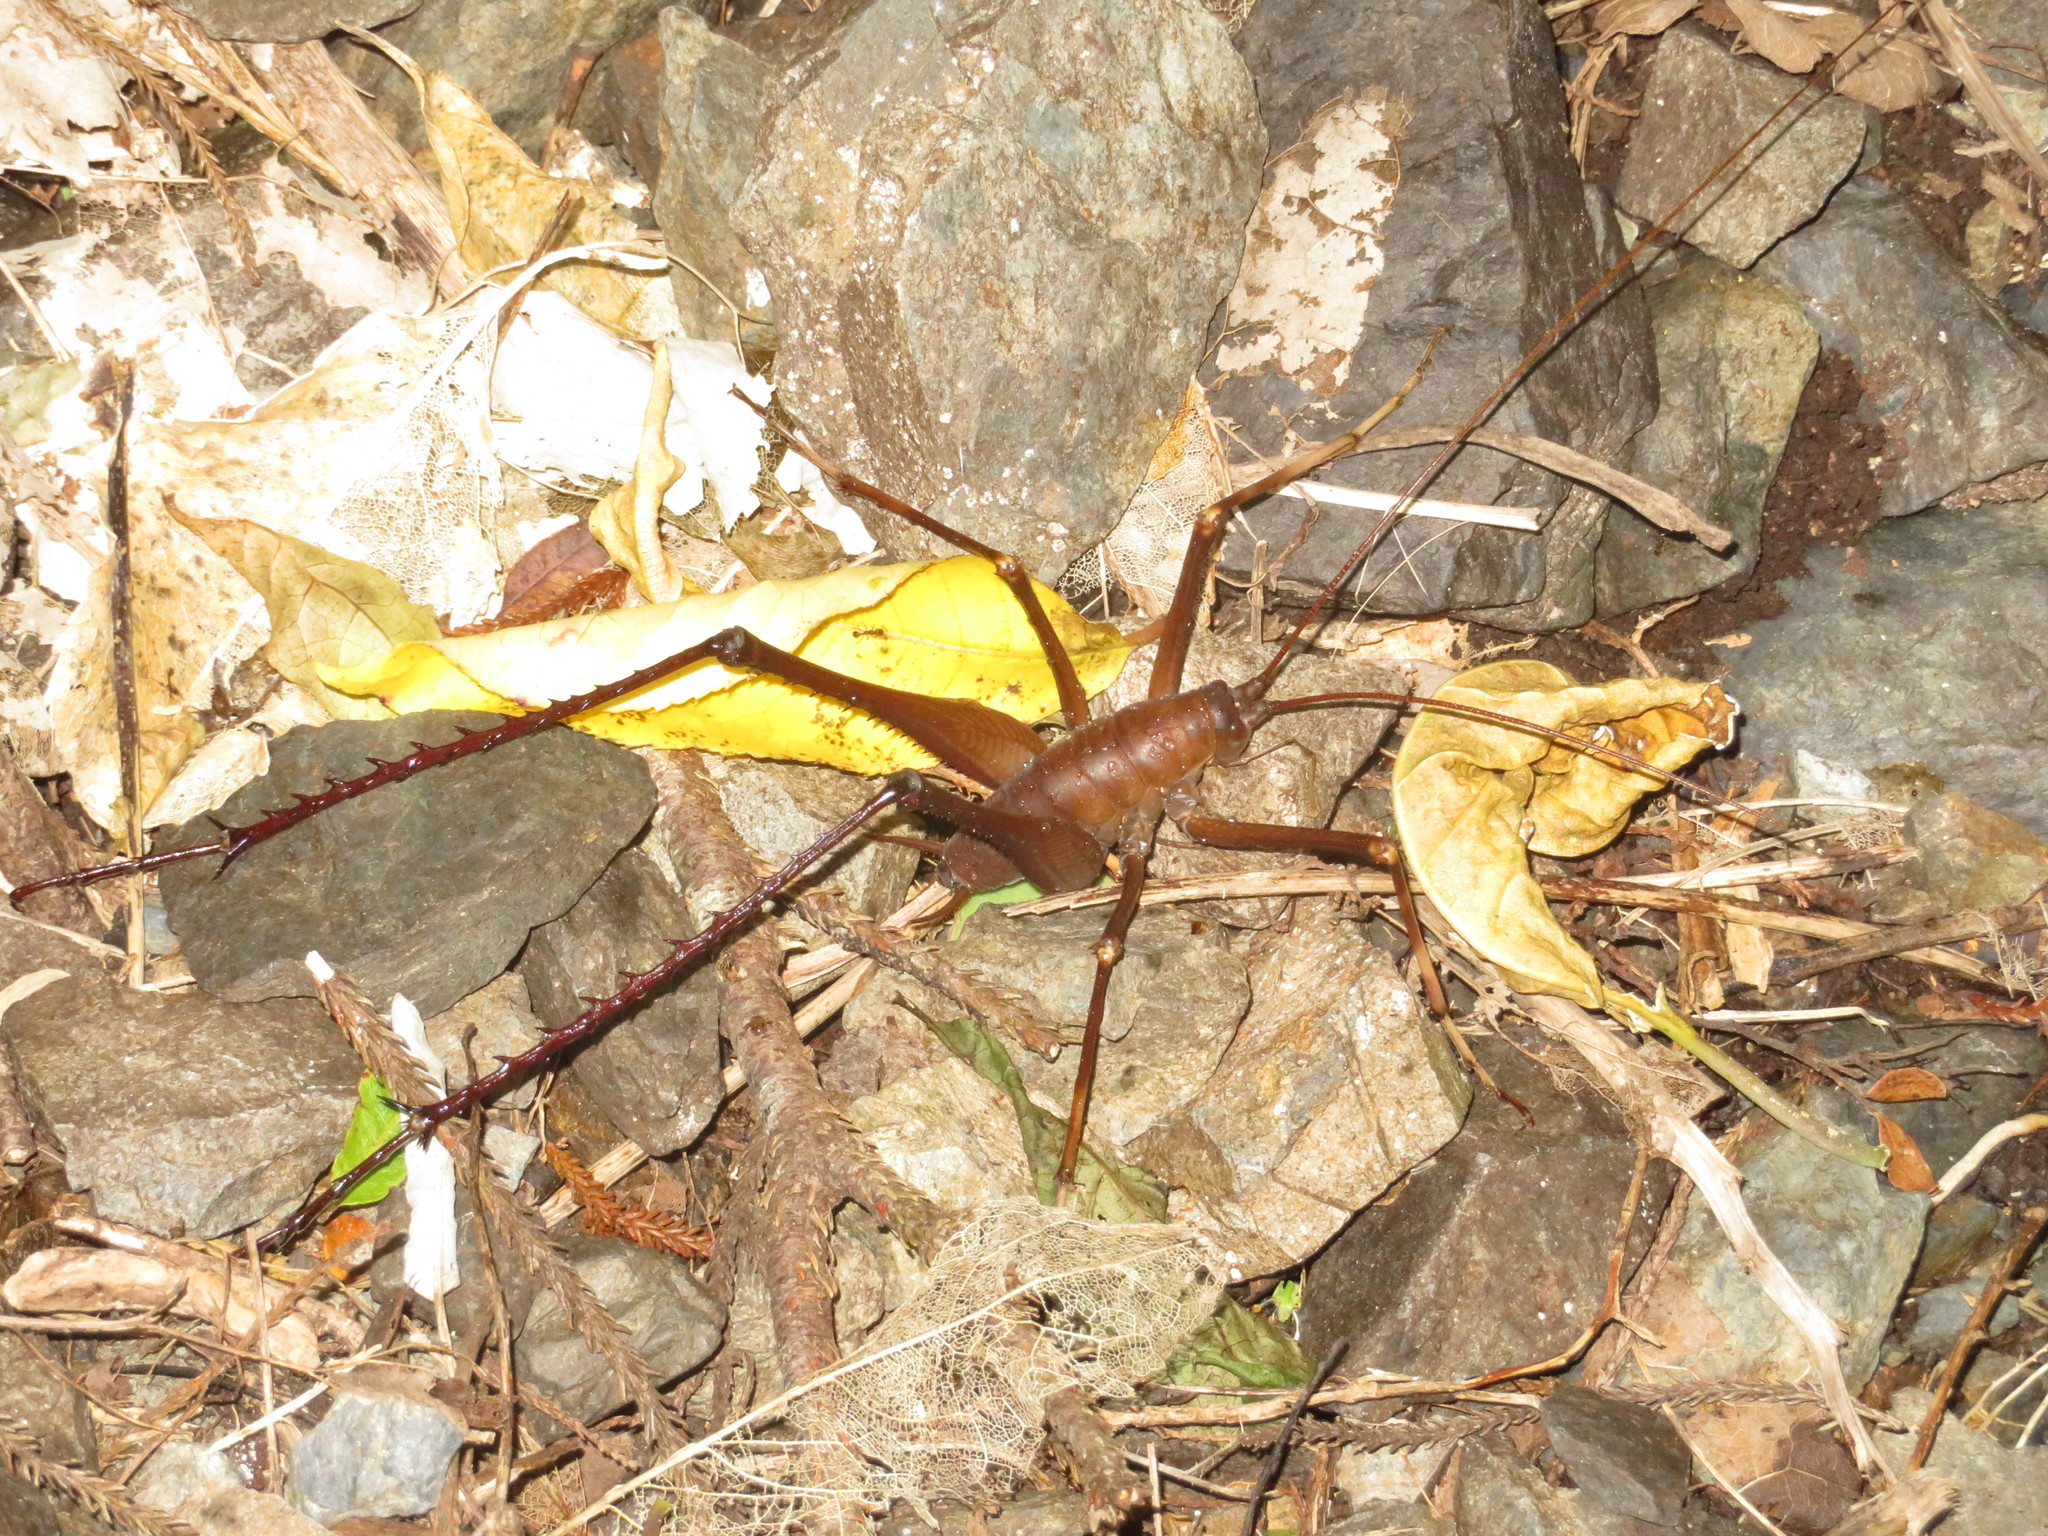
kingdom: Animalia
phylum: Arthropoda
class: Insecta
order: Orthoptera
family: Rhaphidophoridae
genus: Pachyrhamma
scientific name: Pachyrhamma longipes
